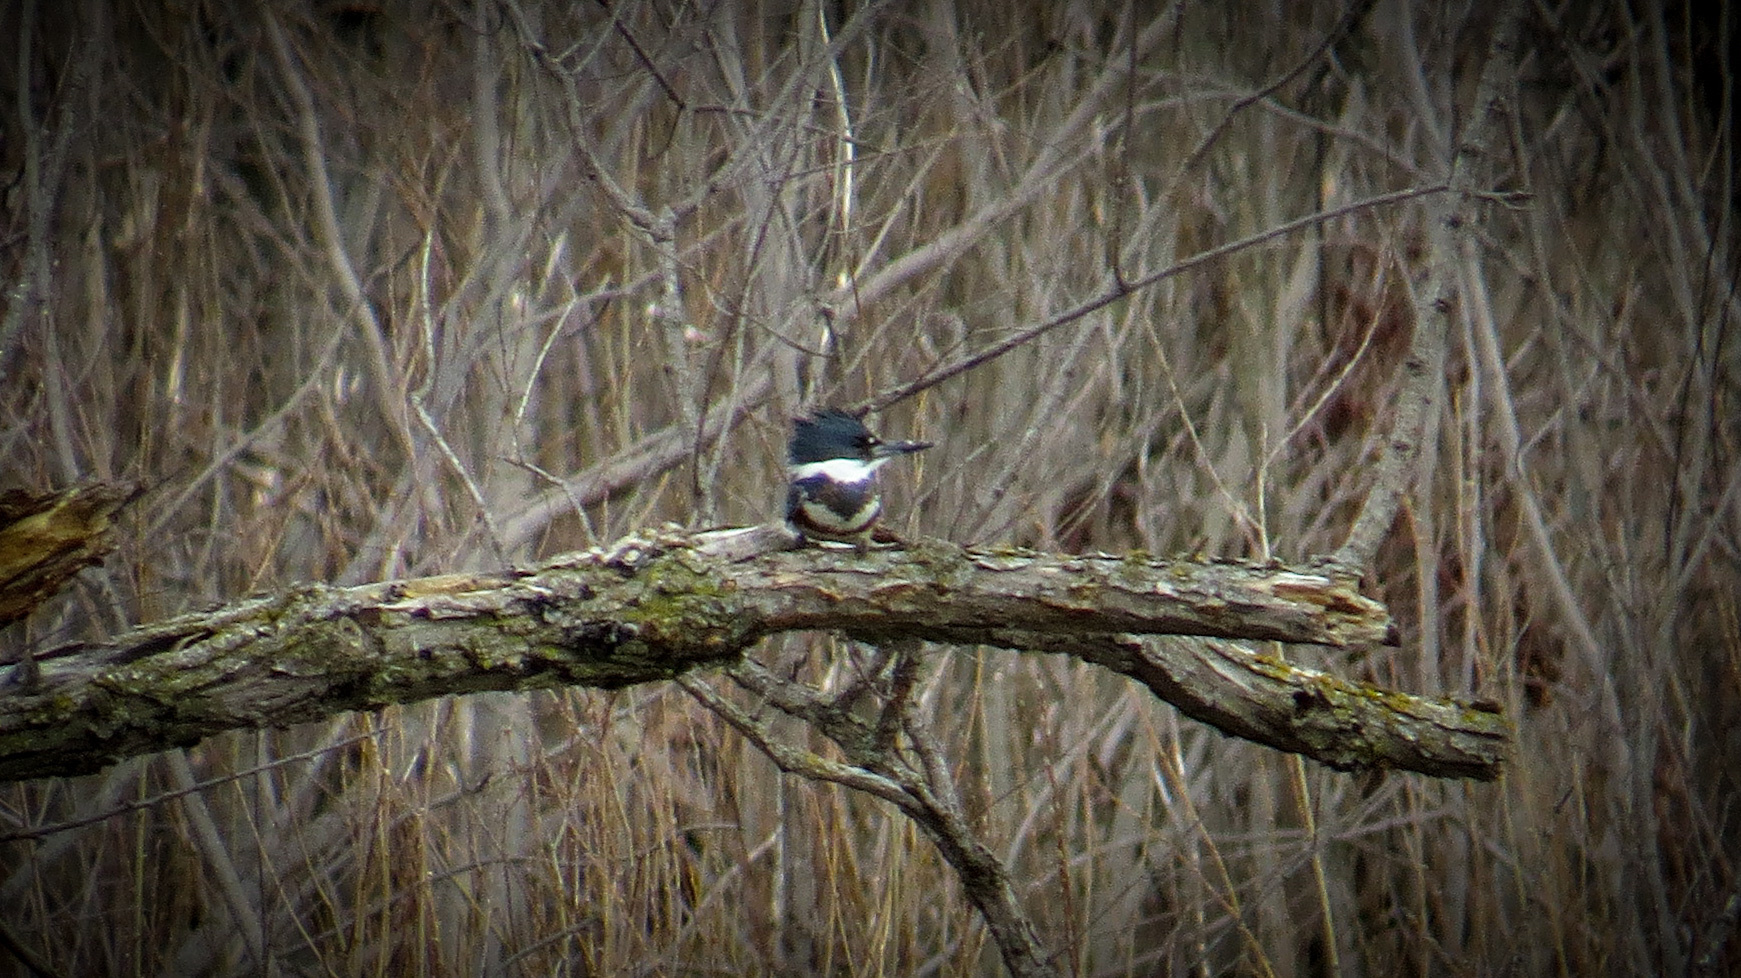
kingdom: Animalia
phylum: Chordata
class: Aves
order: Coraciiformes
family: Alcedinidae
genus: Megaceryle
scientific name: Megaceryle alcyon
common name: Belted kingfisher
